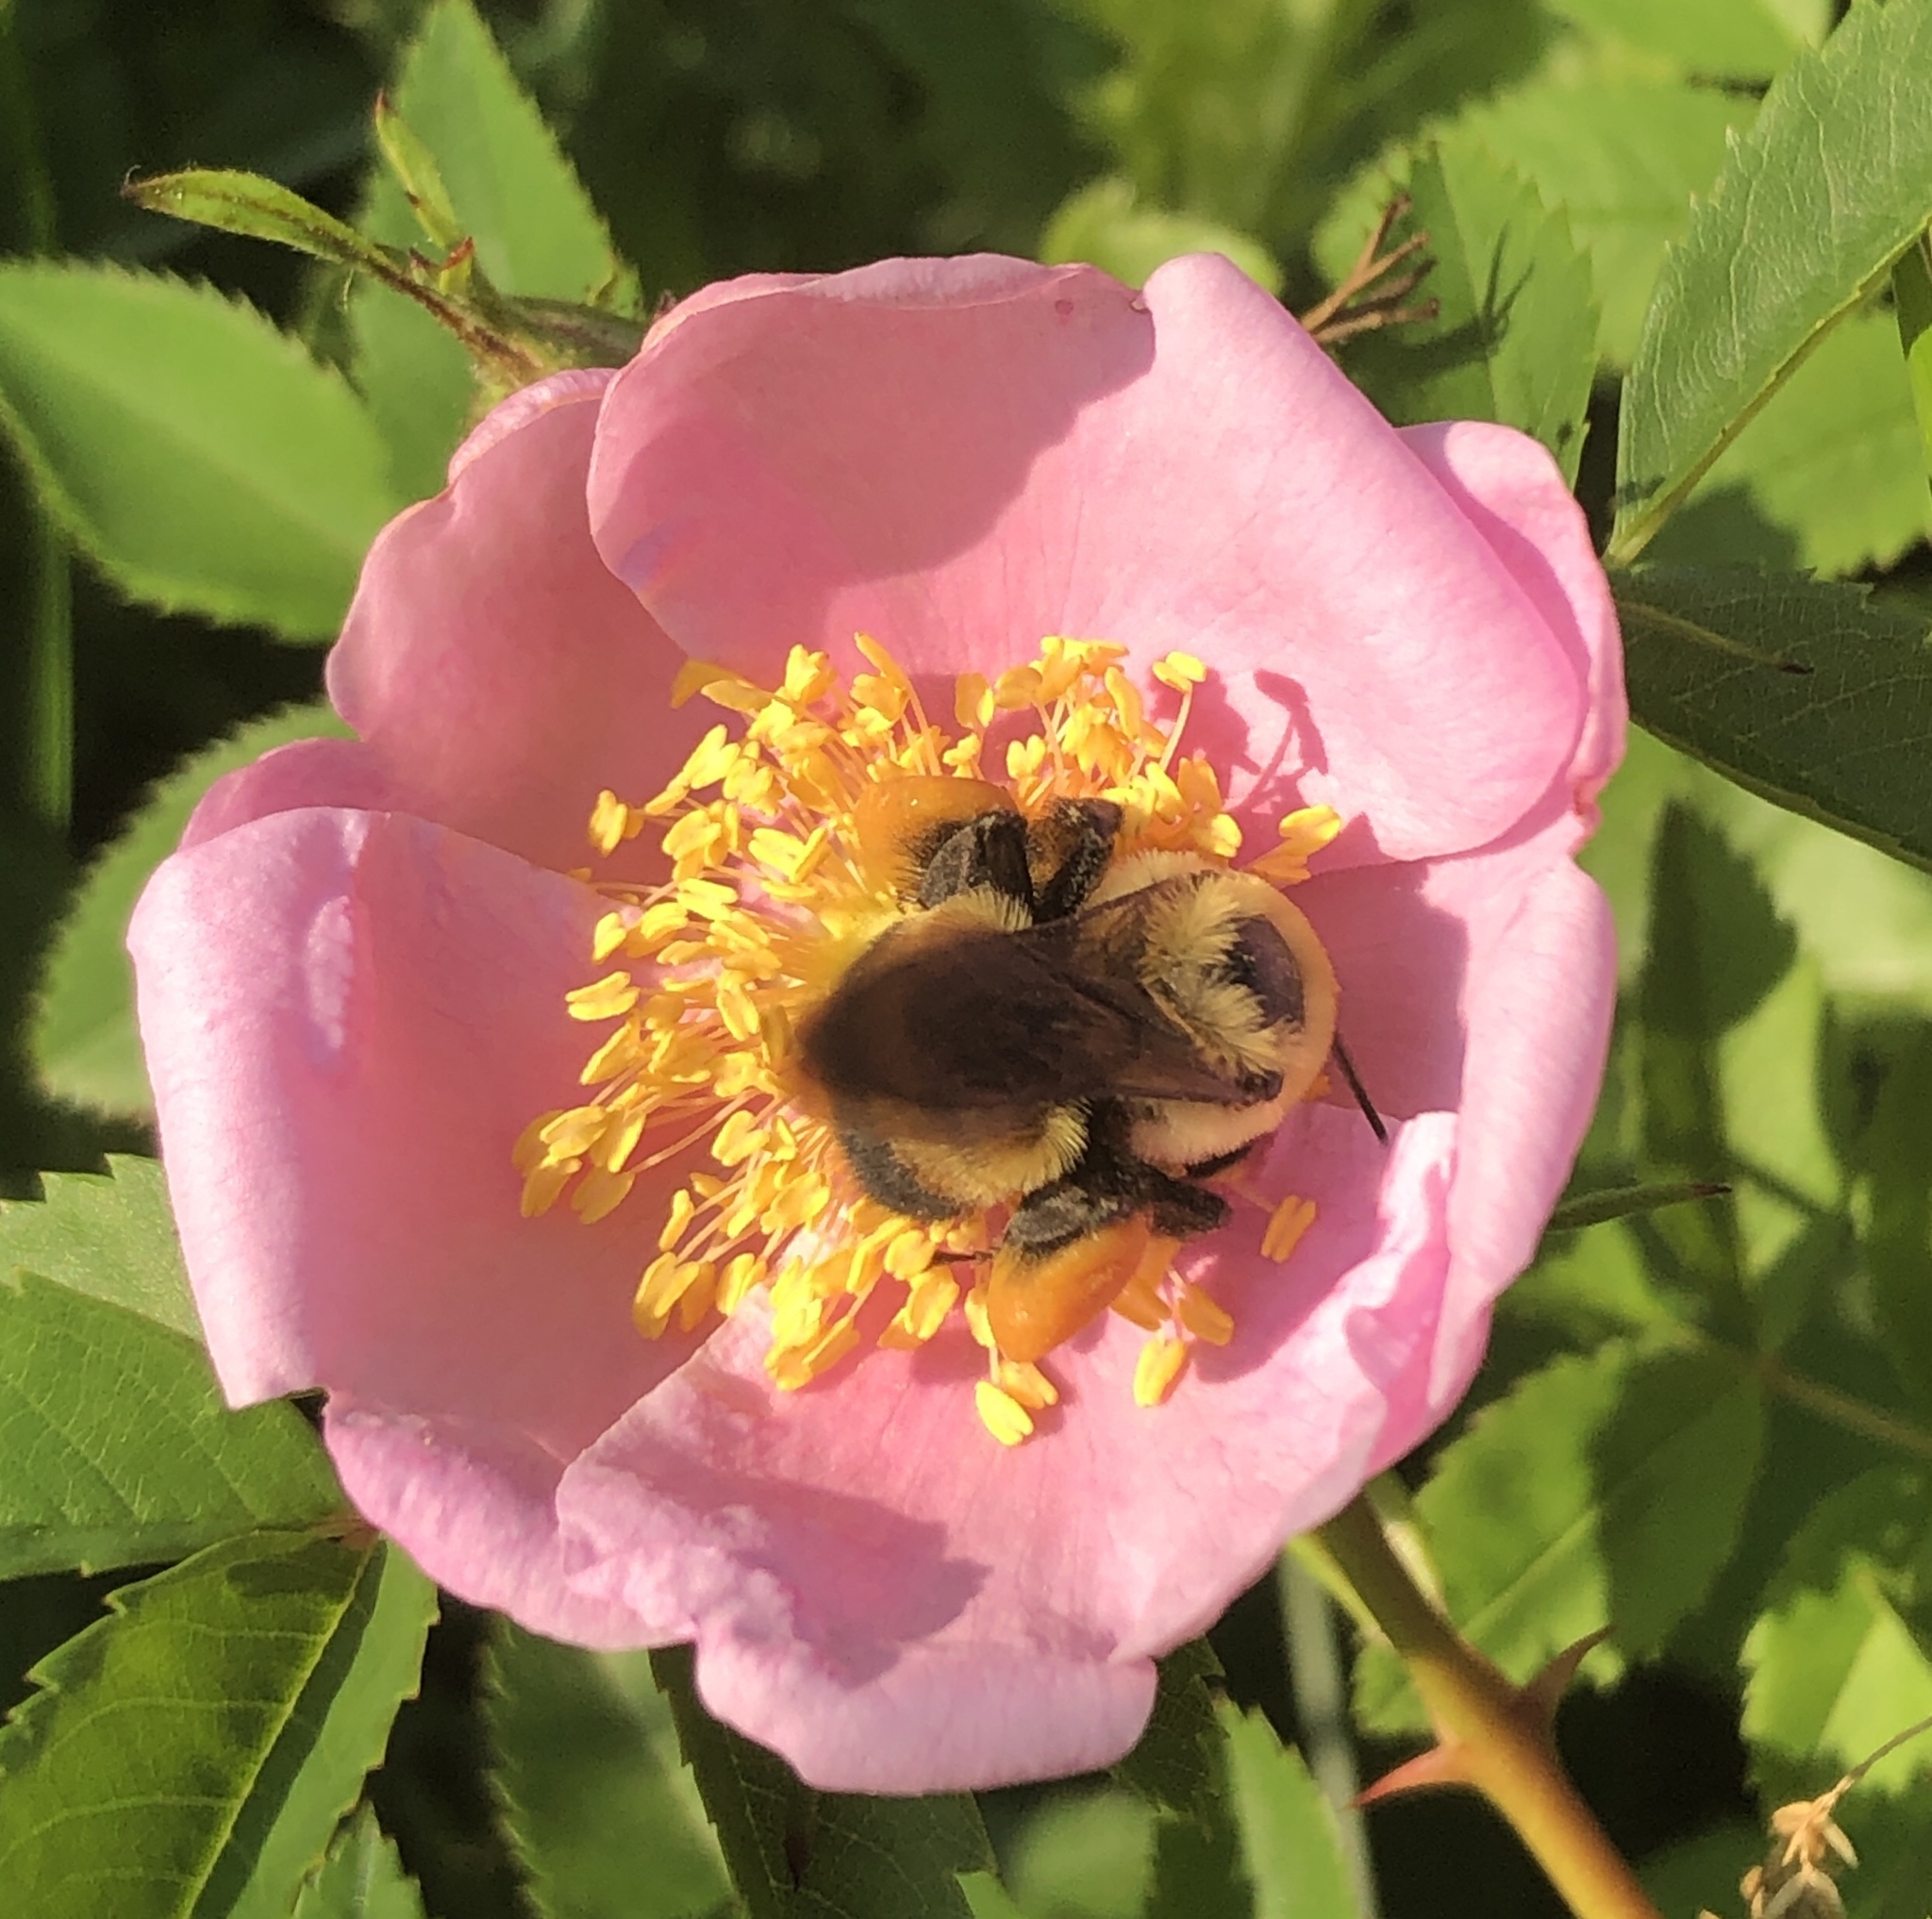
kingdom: Animalia
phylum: Arthropoda
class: Insecta
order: Hymenoptera
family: Apidae
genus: Bombus
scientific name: Bombus griseocollis
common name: Brown-belted bumble bee
